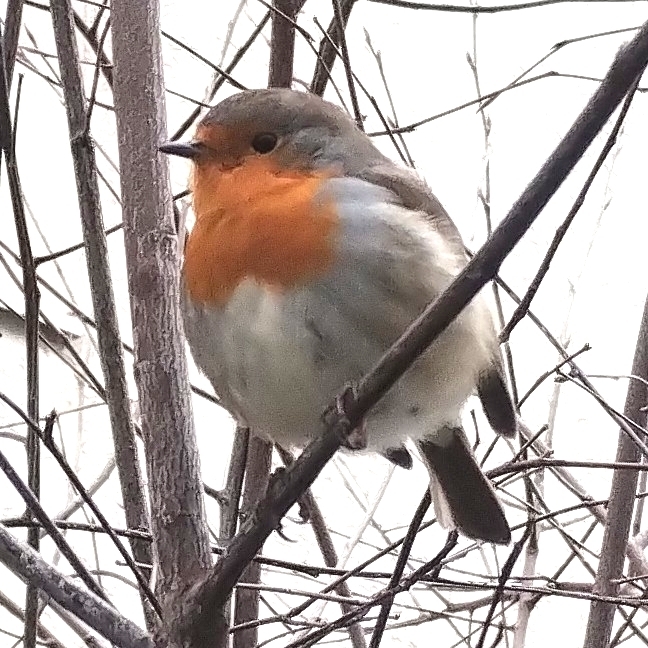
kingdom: Animalia
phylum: Chordata
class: Aves
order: Passeriformes
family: Muscicapidae
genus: Erithacus
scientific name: Erithacus rubecula
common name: European robin
